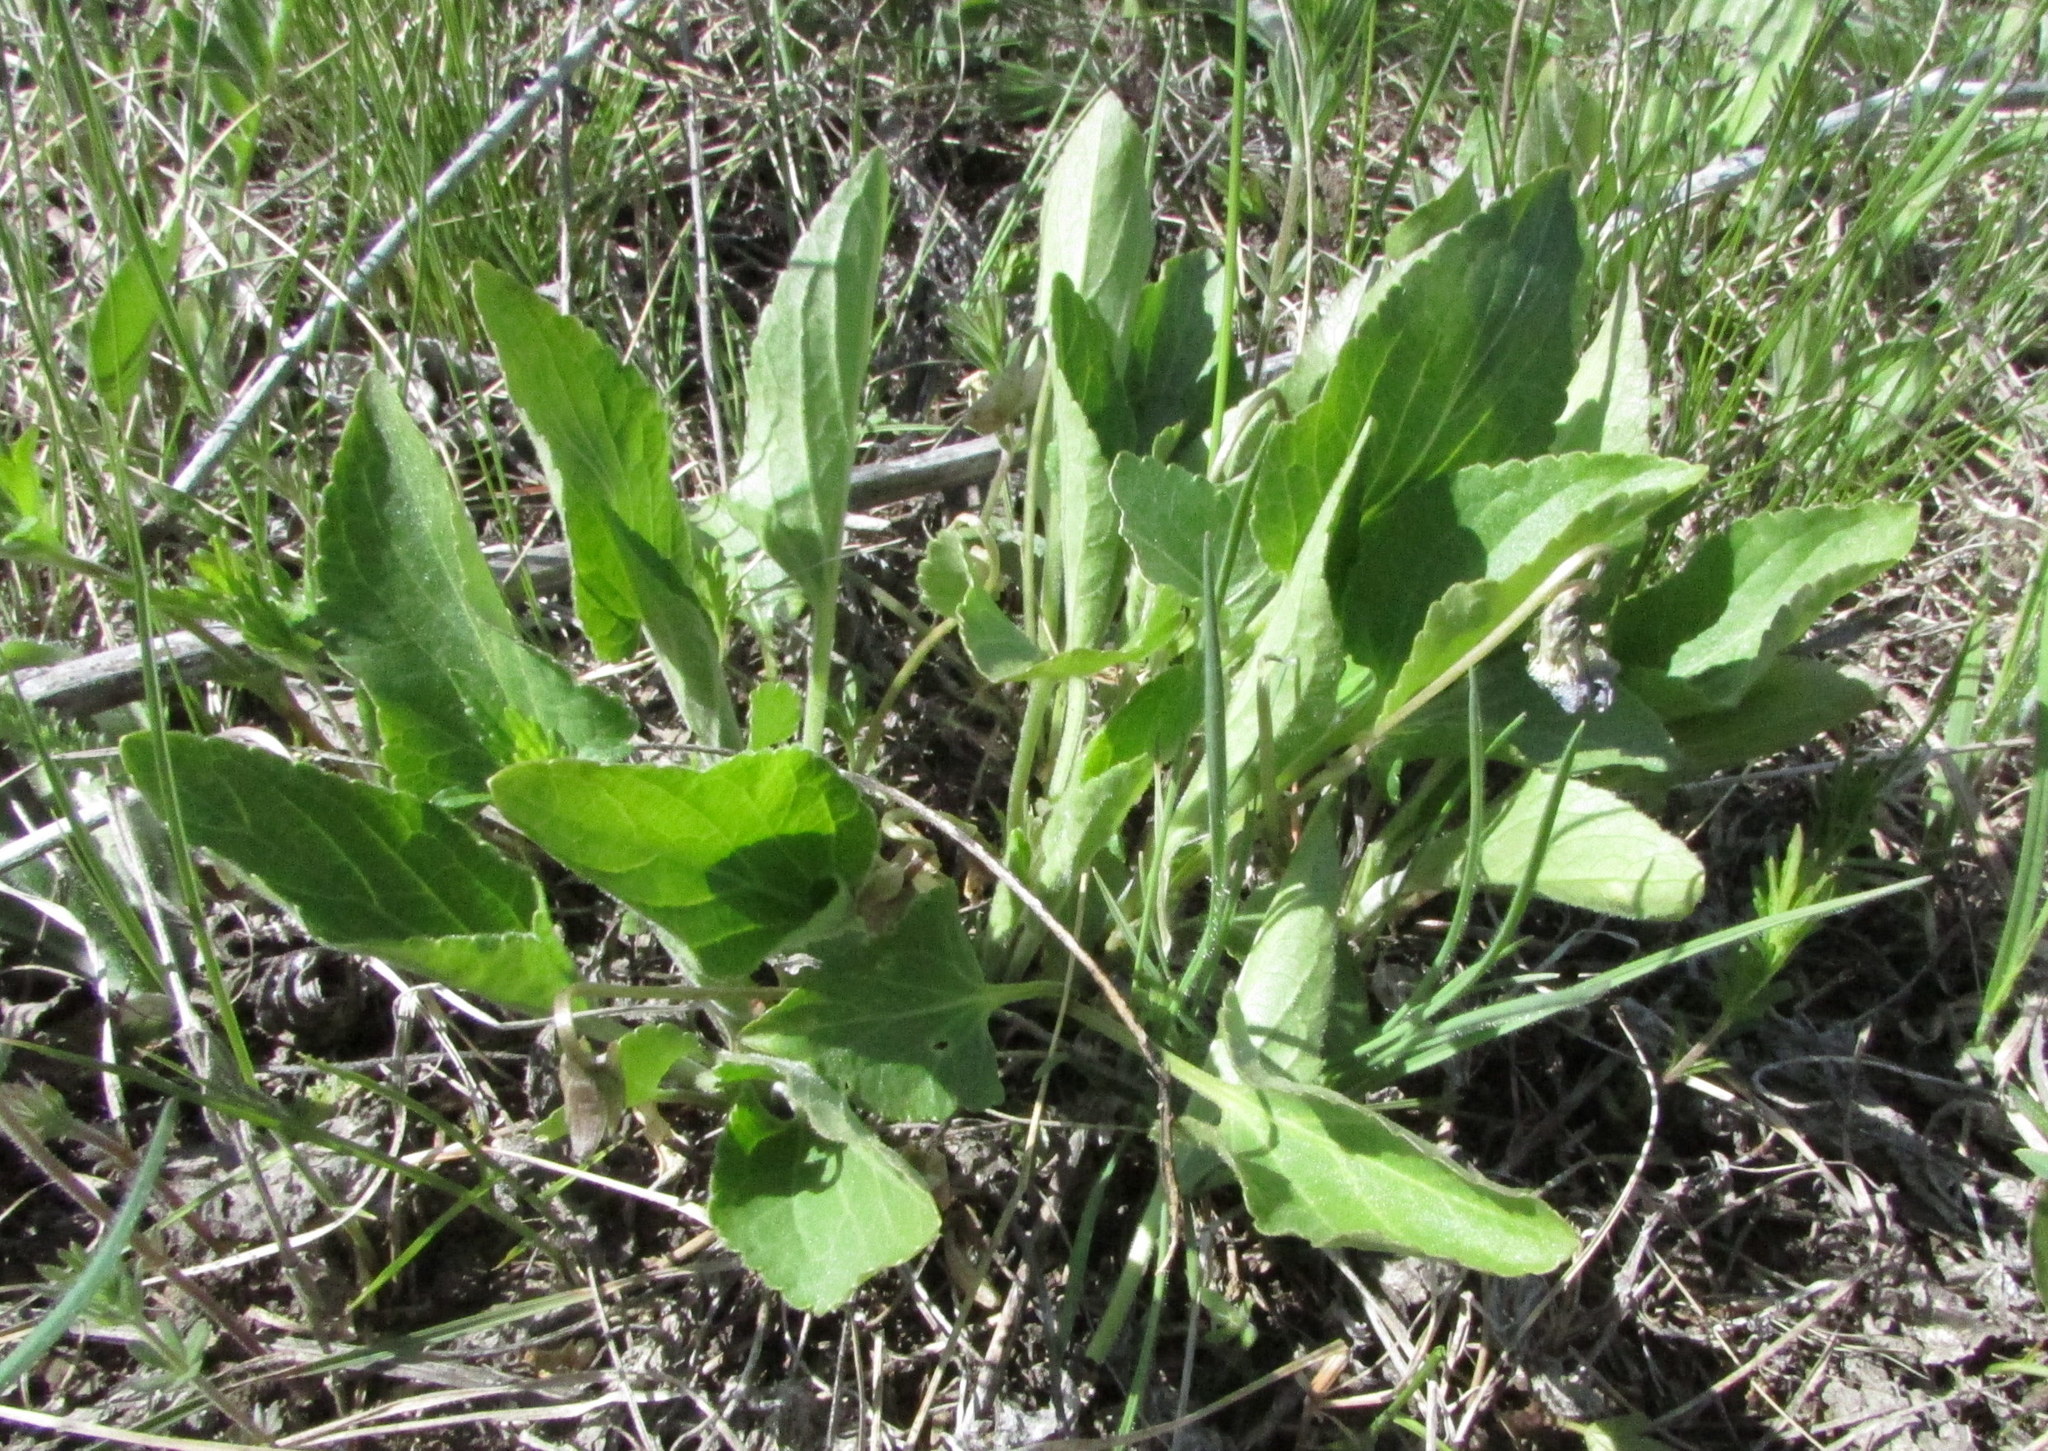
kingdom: Plantae
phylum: Tracheophyta
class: Magnoliopsida
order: Malpighiales
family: Violaceae
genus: Viola
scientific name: Viola ambigua
